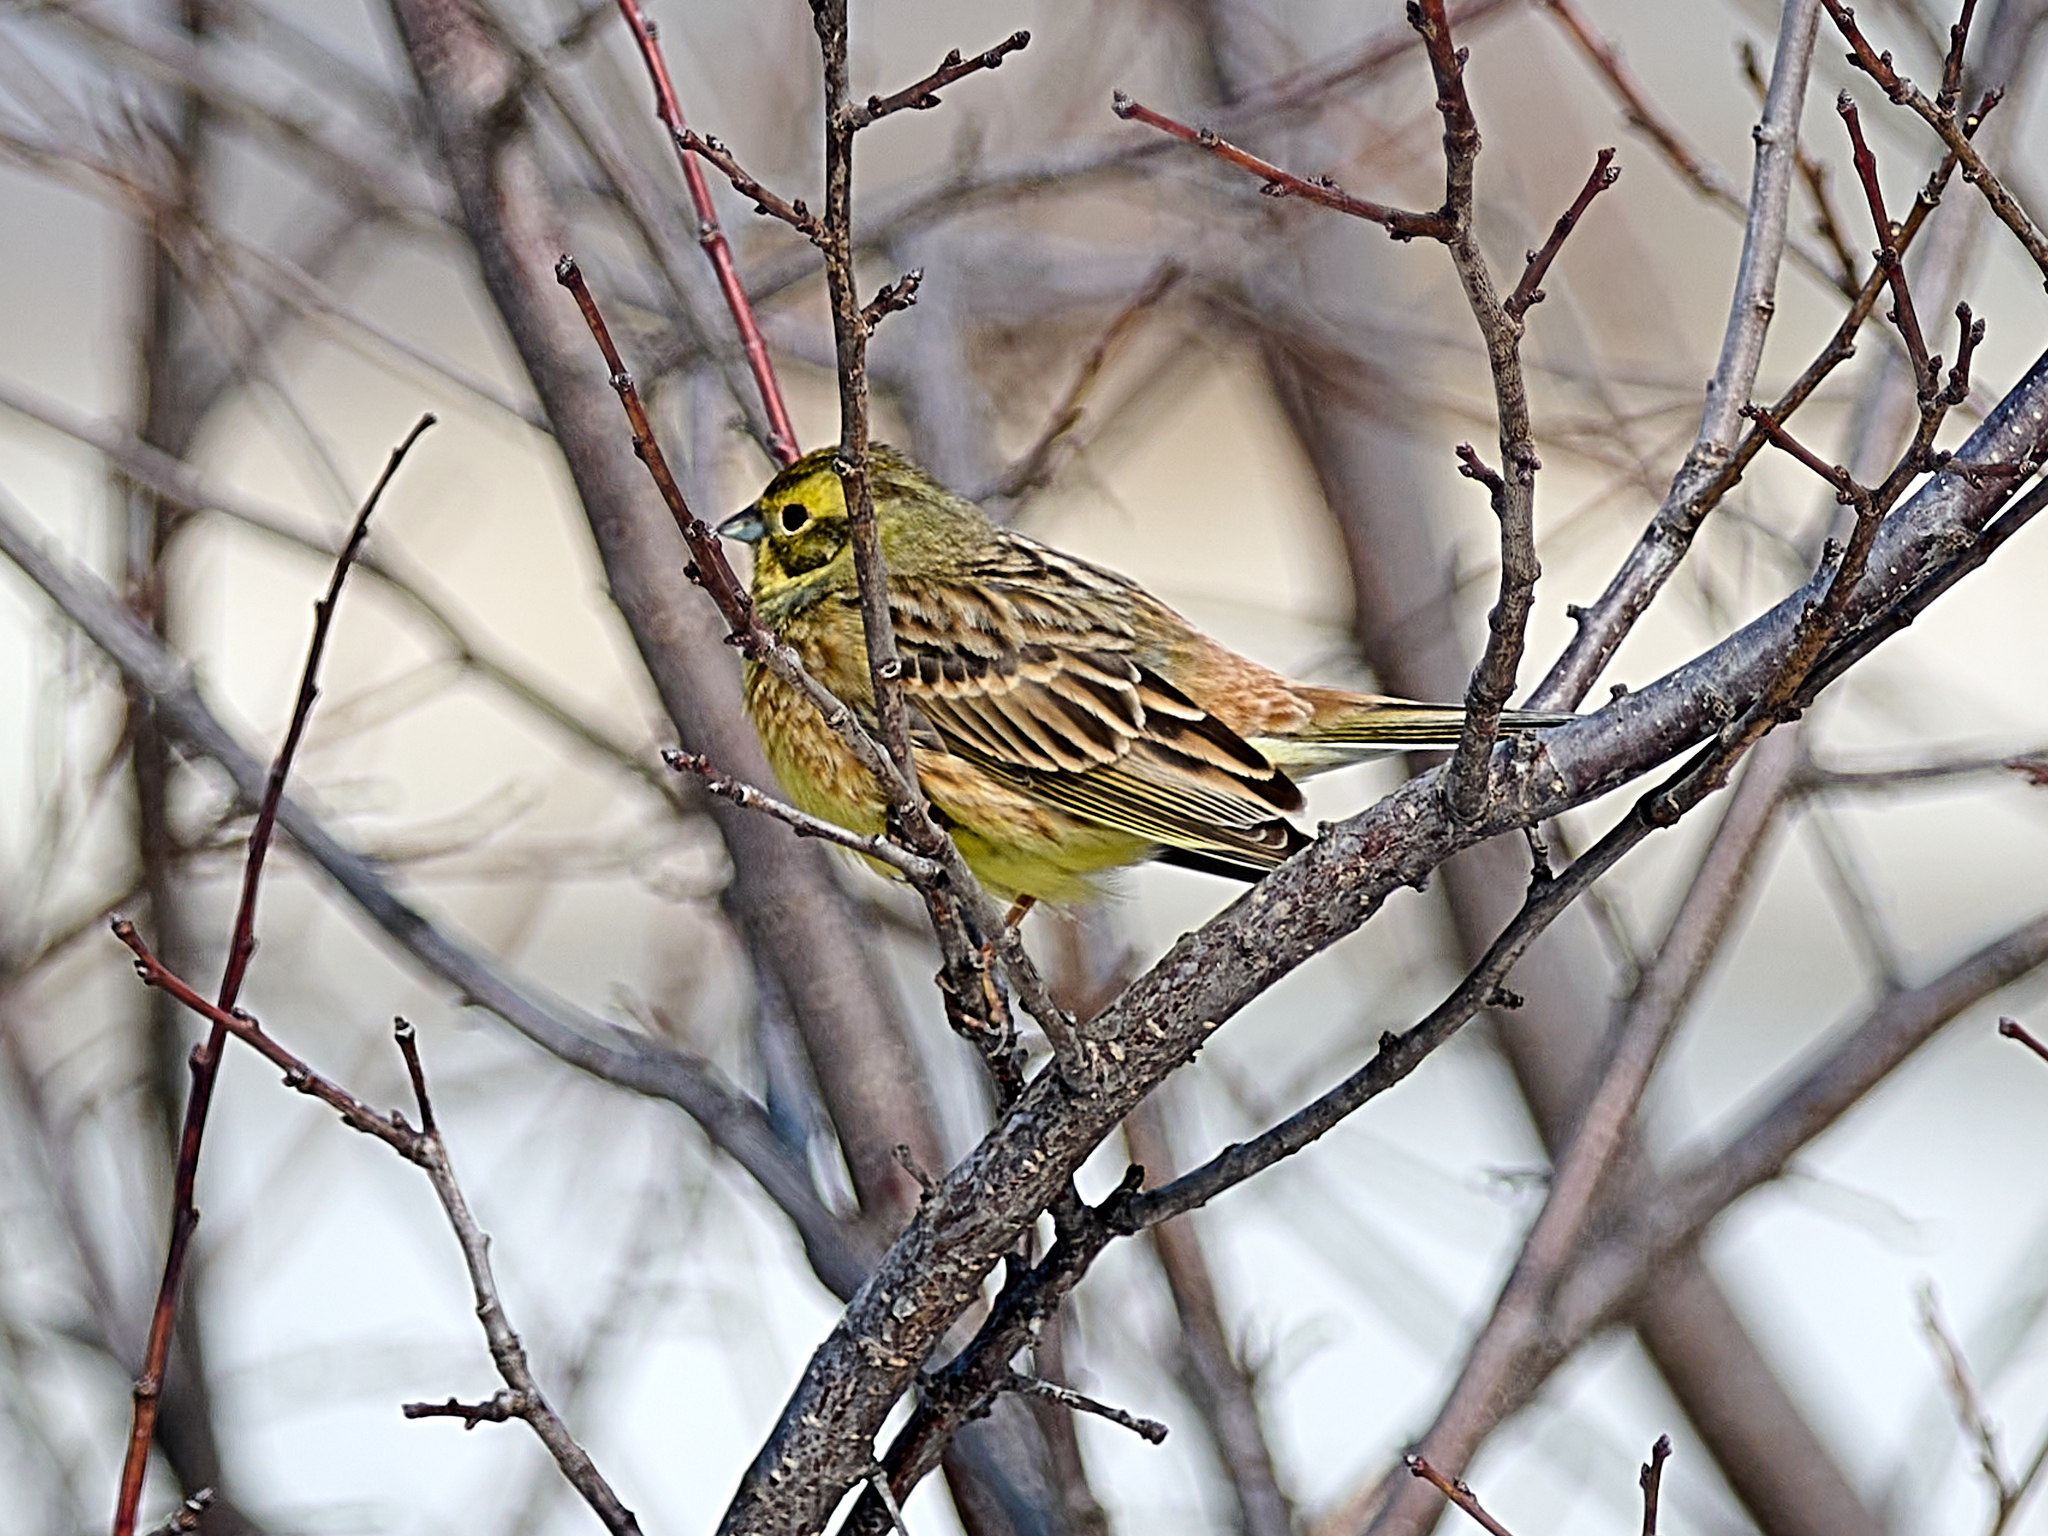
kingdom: Animalia
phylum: Chordata
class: Aves
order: Passeriformes
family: Emberizidae
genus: Emberiza
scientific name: Emberiza citrinella
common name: Yellowhammer
